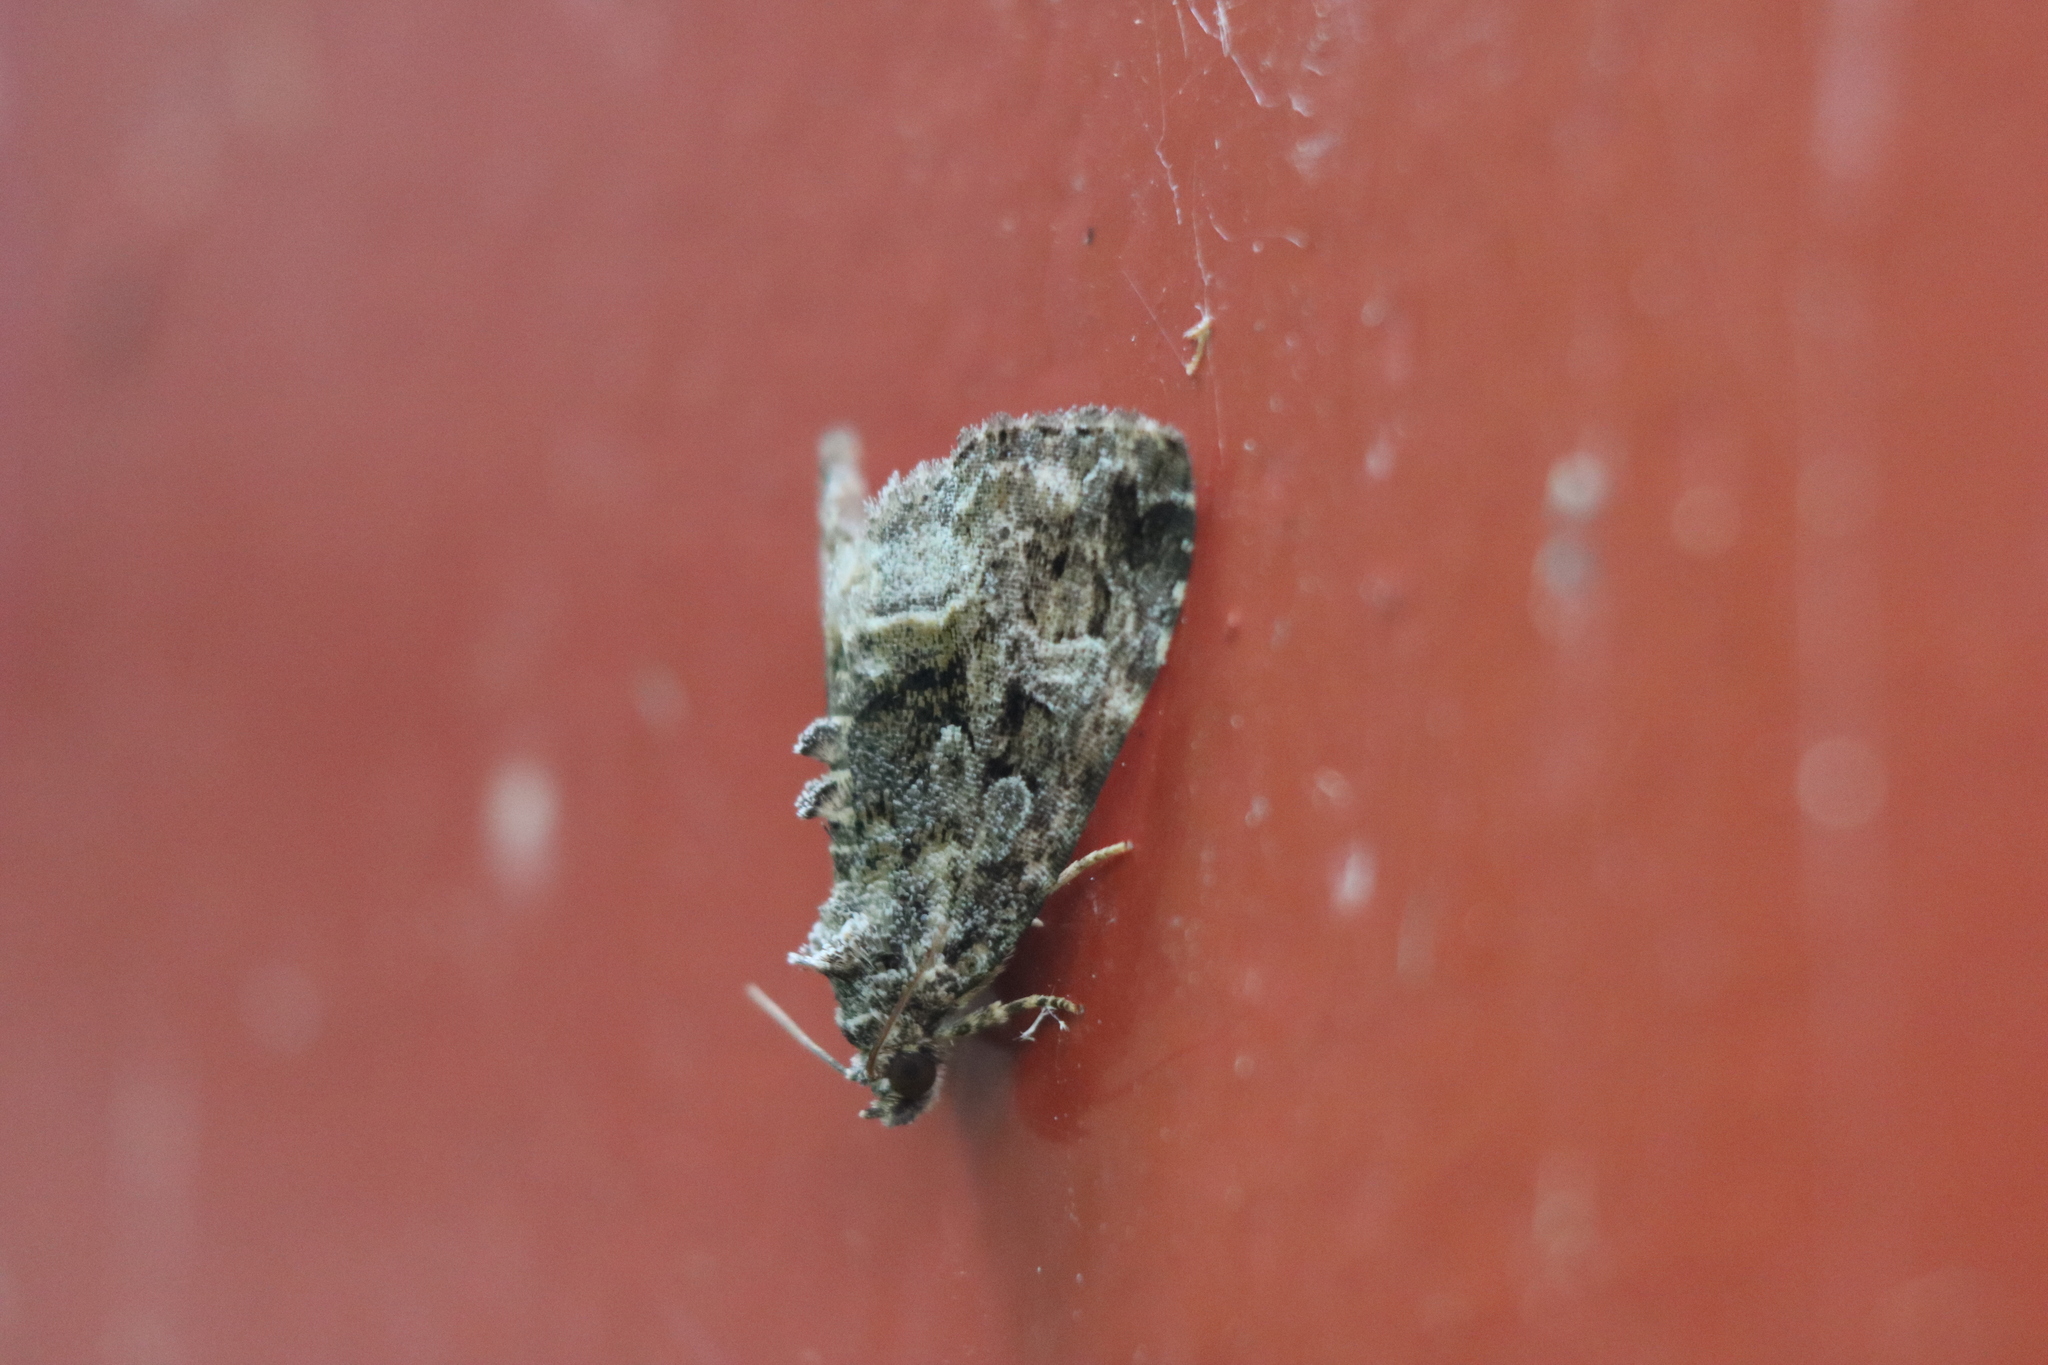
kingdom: Animalia
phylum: Arthropoda
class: Insecta
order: Lepidoptera
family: Noctuidae
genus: Protodeltote
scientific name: Protodeltote muscosula
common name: Large mossy glyph
